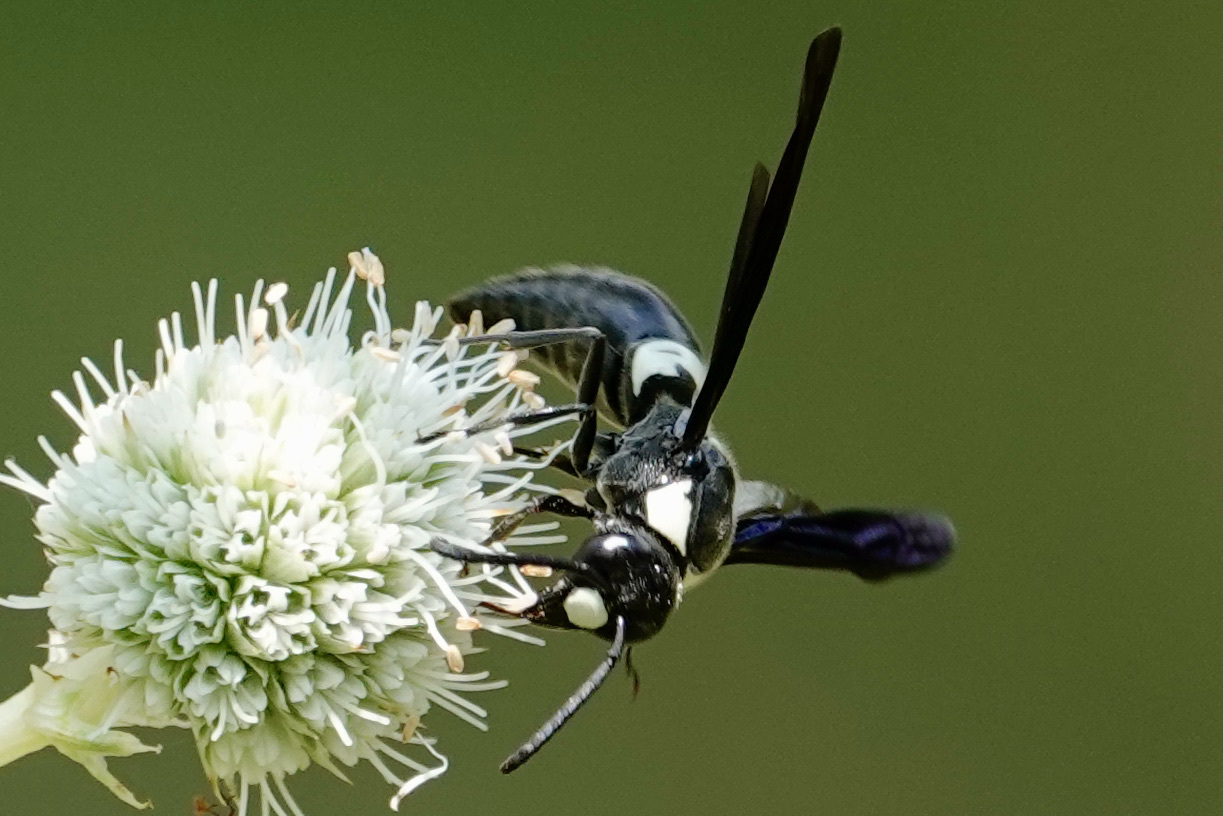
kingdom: Animalia
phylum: Arthropoda
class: Insecta
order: Hymenoptera
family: Eumenidae
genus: Monobia
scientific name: Monobia quadridens
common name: Four-toothed mason wasp
